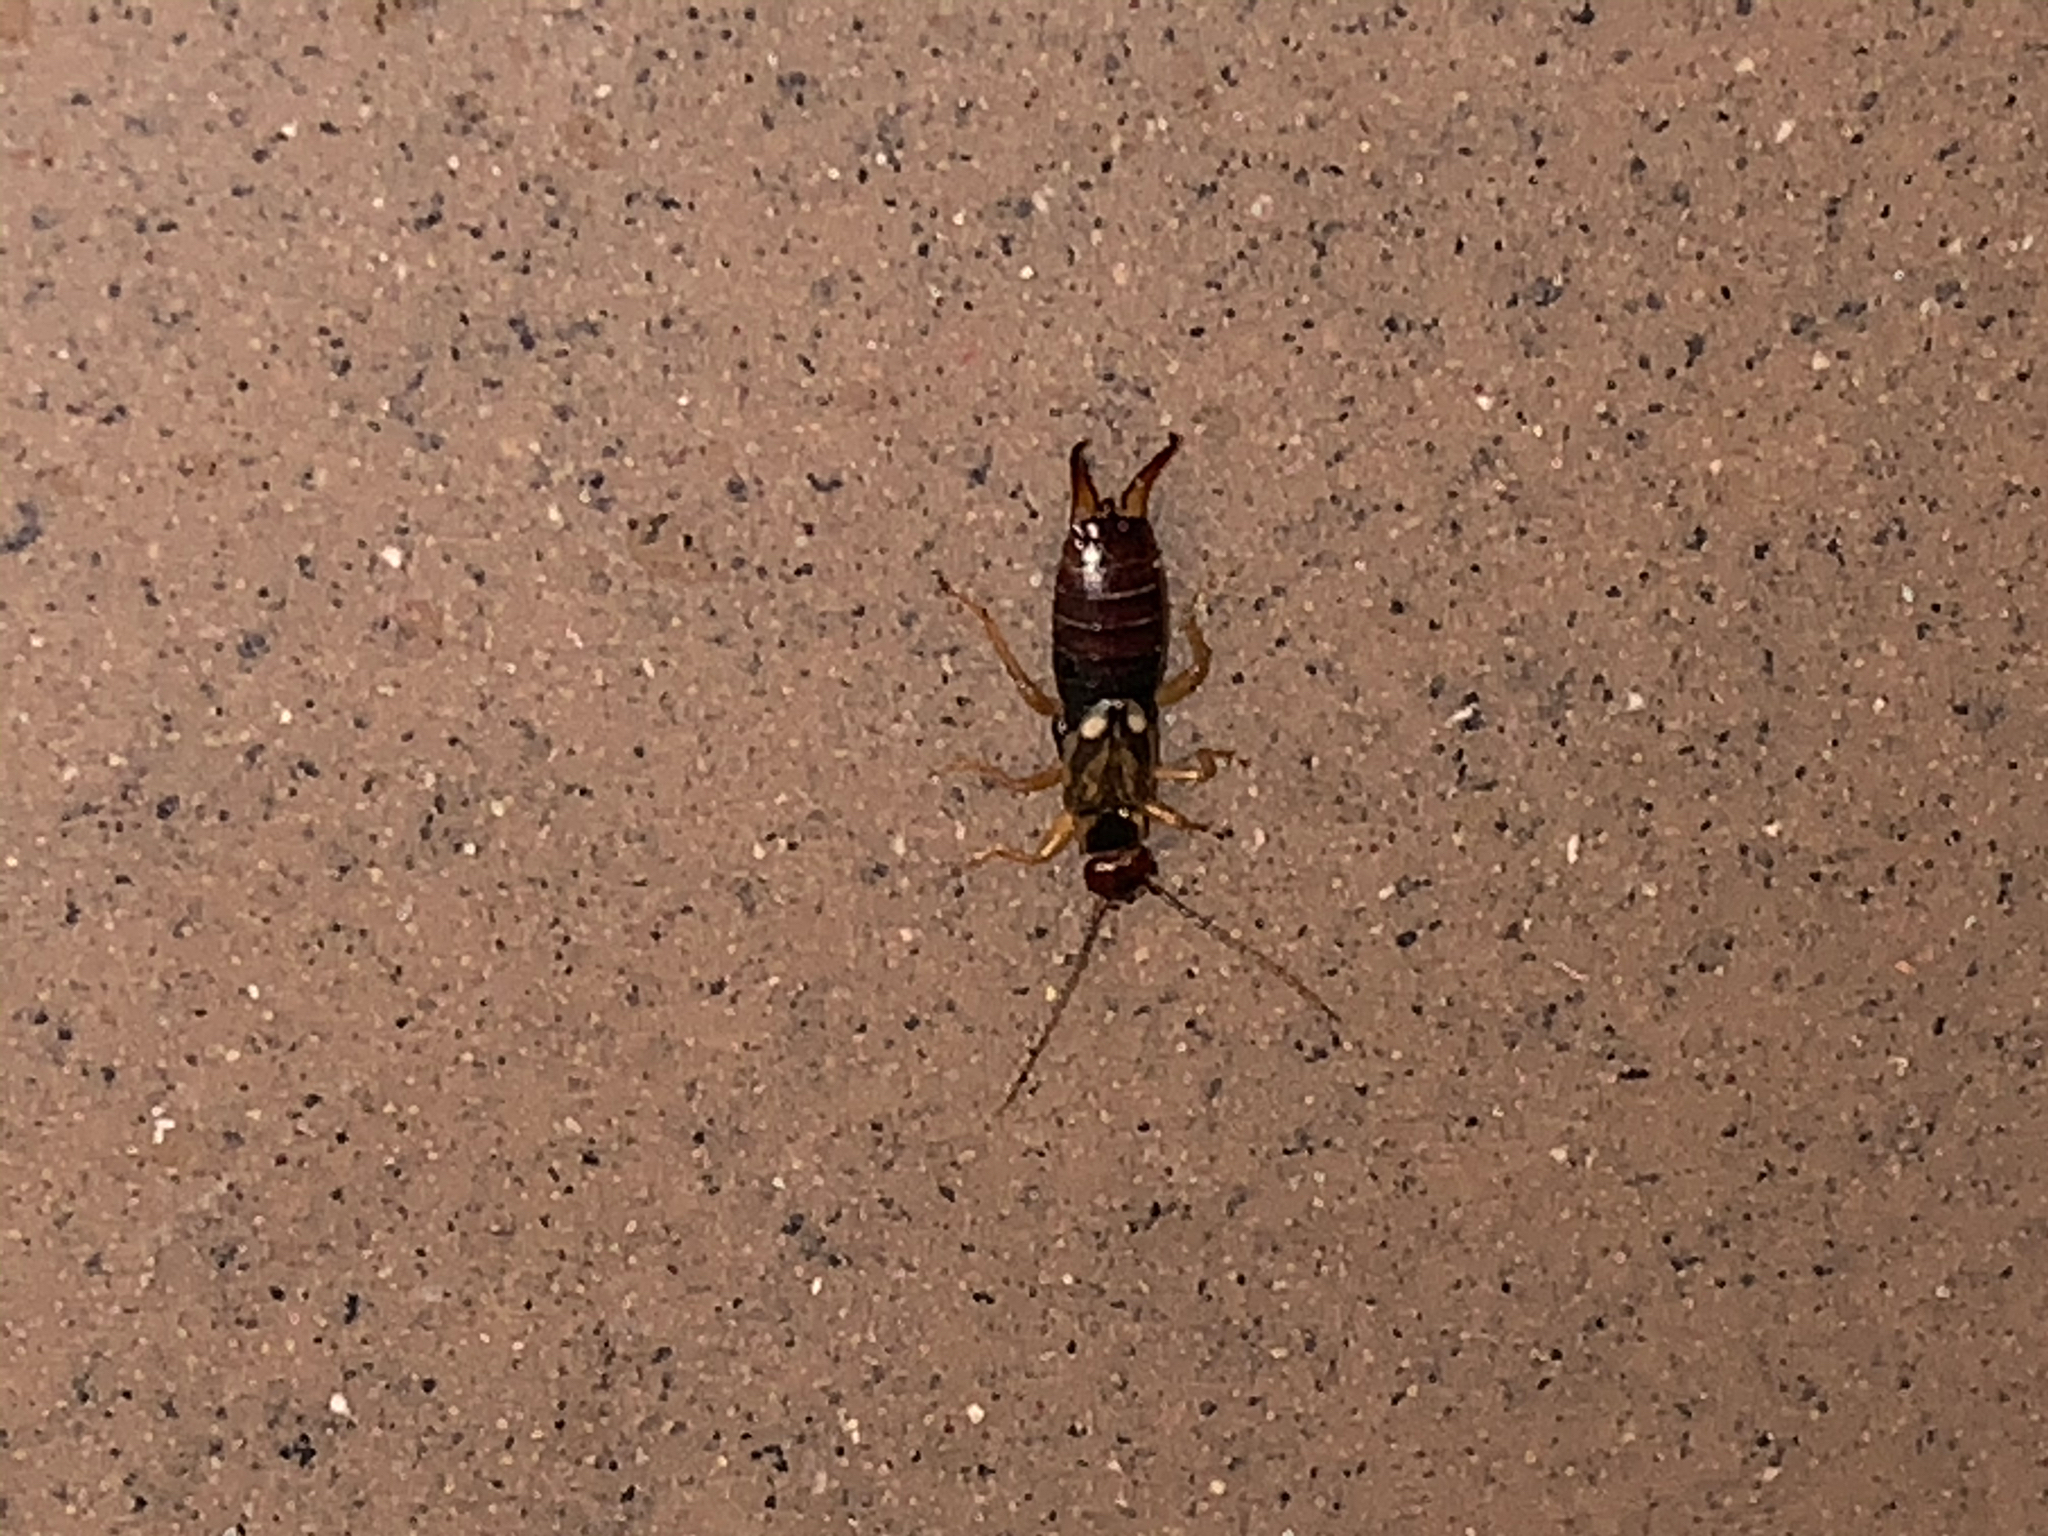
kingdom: Animalia
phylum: Arthropoda
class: Insecta
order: Dermaptera
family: Forficulidae
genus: Forficula
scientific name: Forficula
